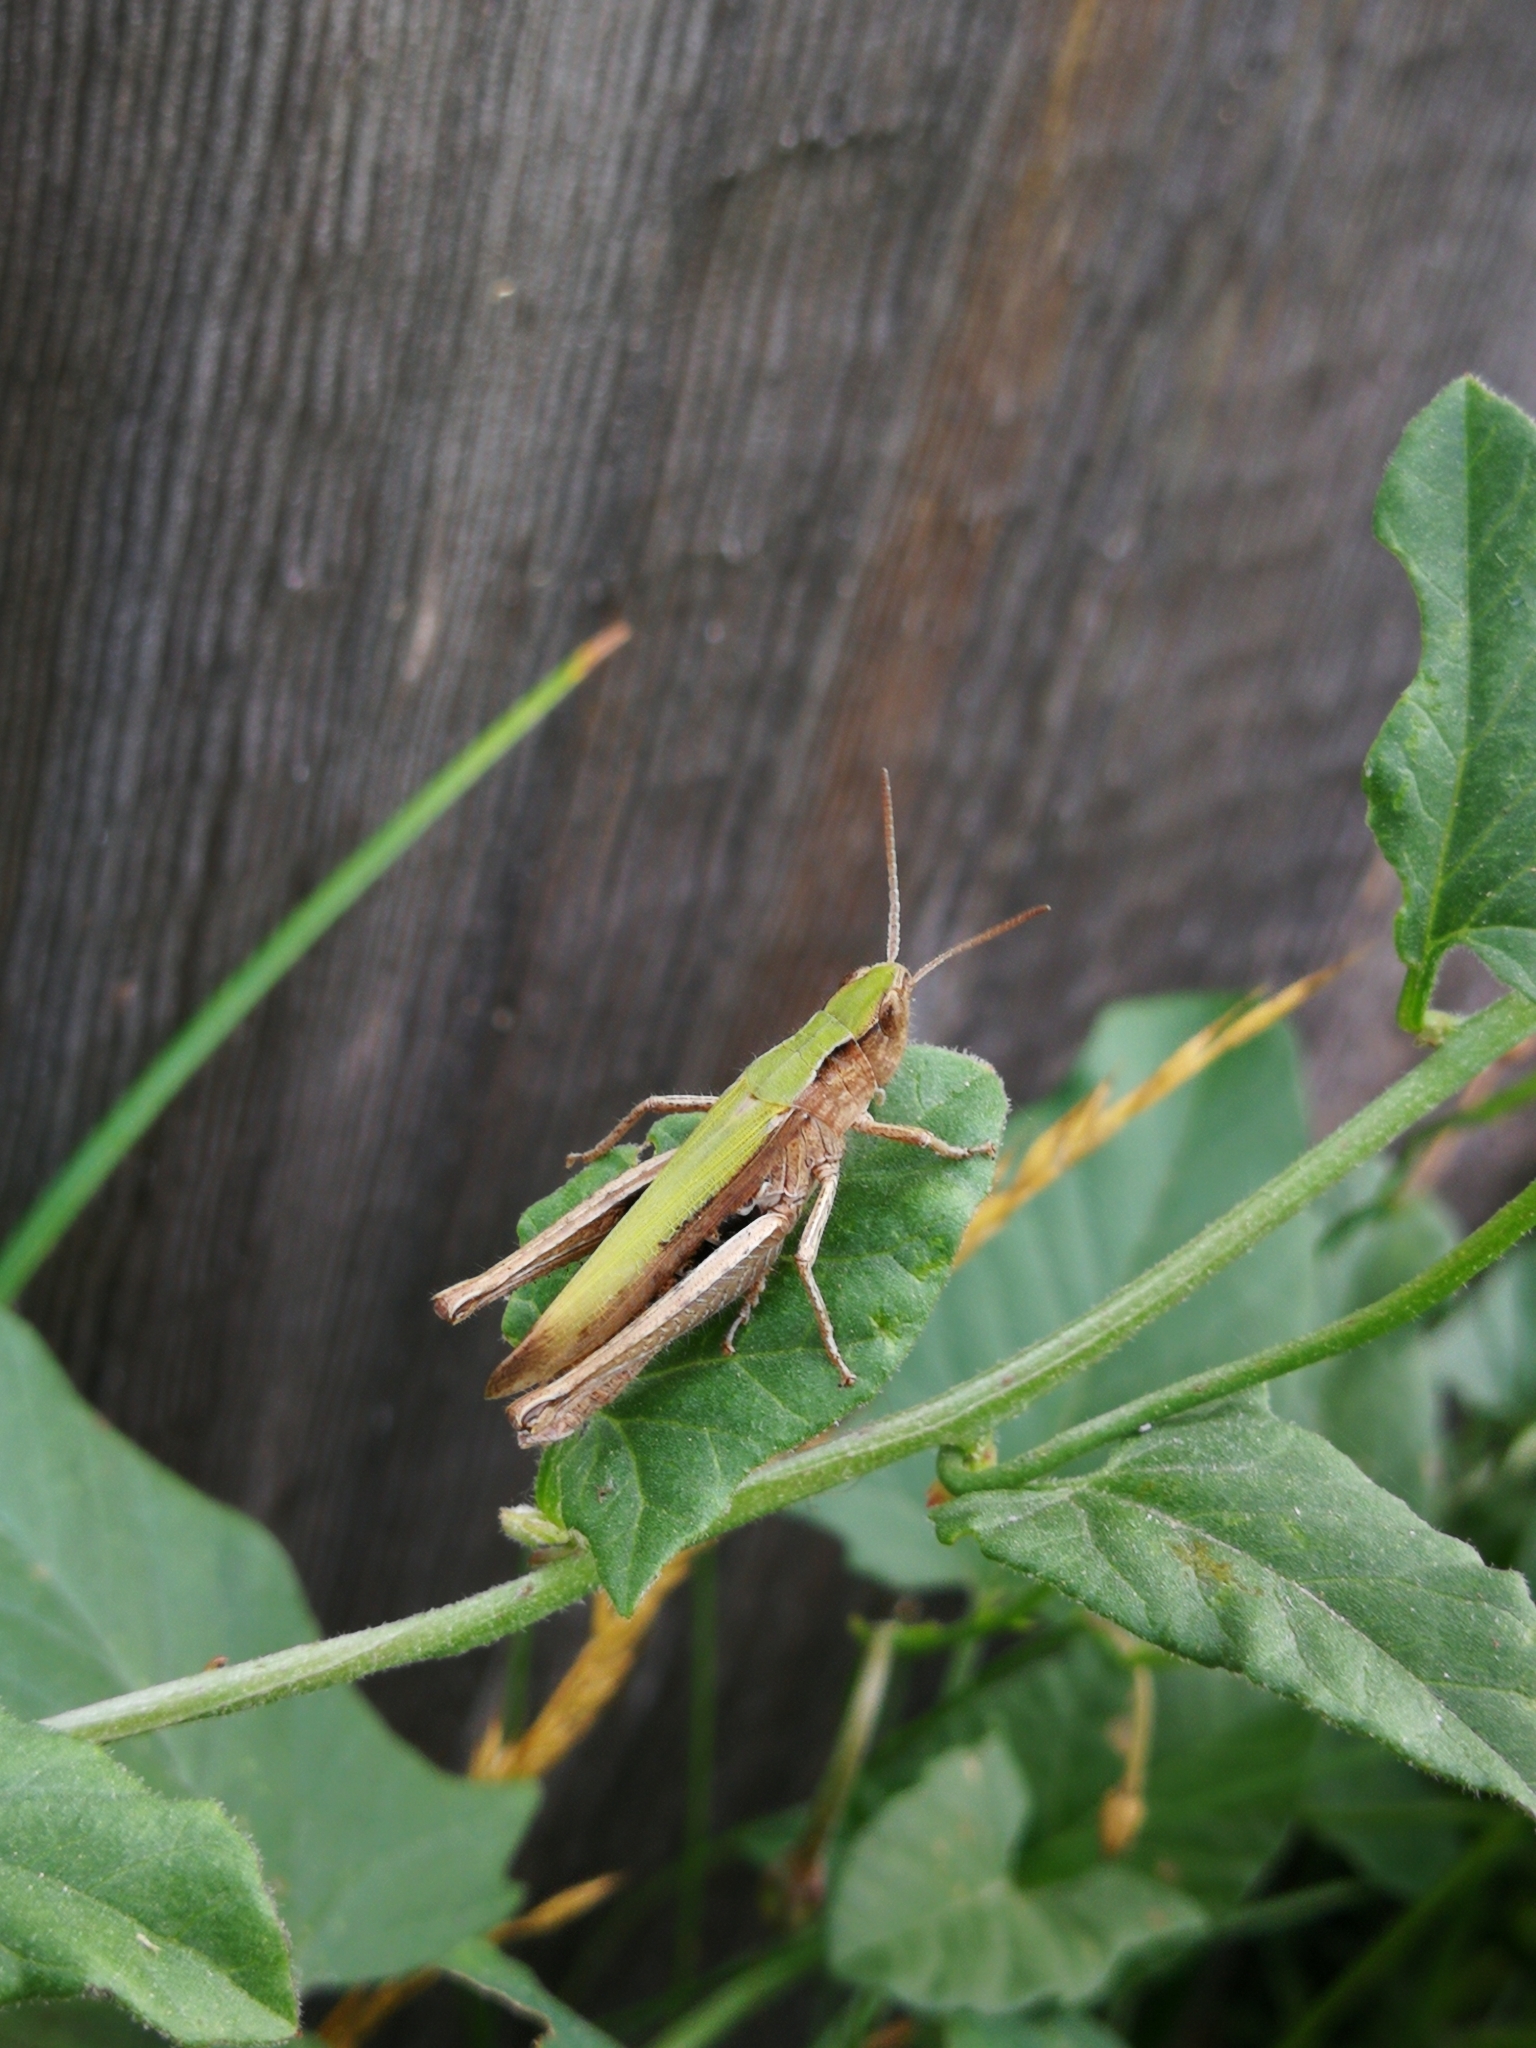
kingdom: Animalia
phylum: Arthropoda
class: Insecta
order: Orthoptera
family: Acrididae
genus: Chorthippus
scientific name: Chorthippus dorsatus
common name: Steppe grasshopper
